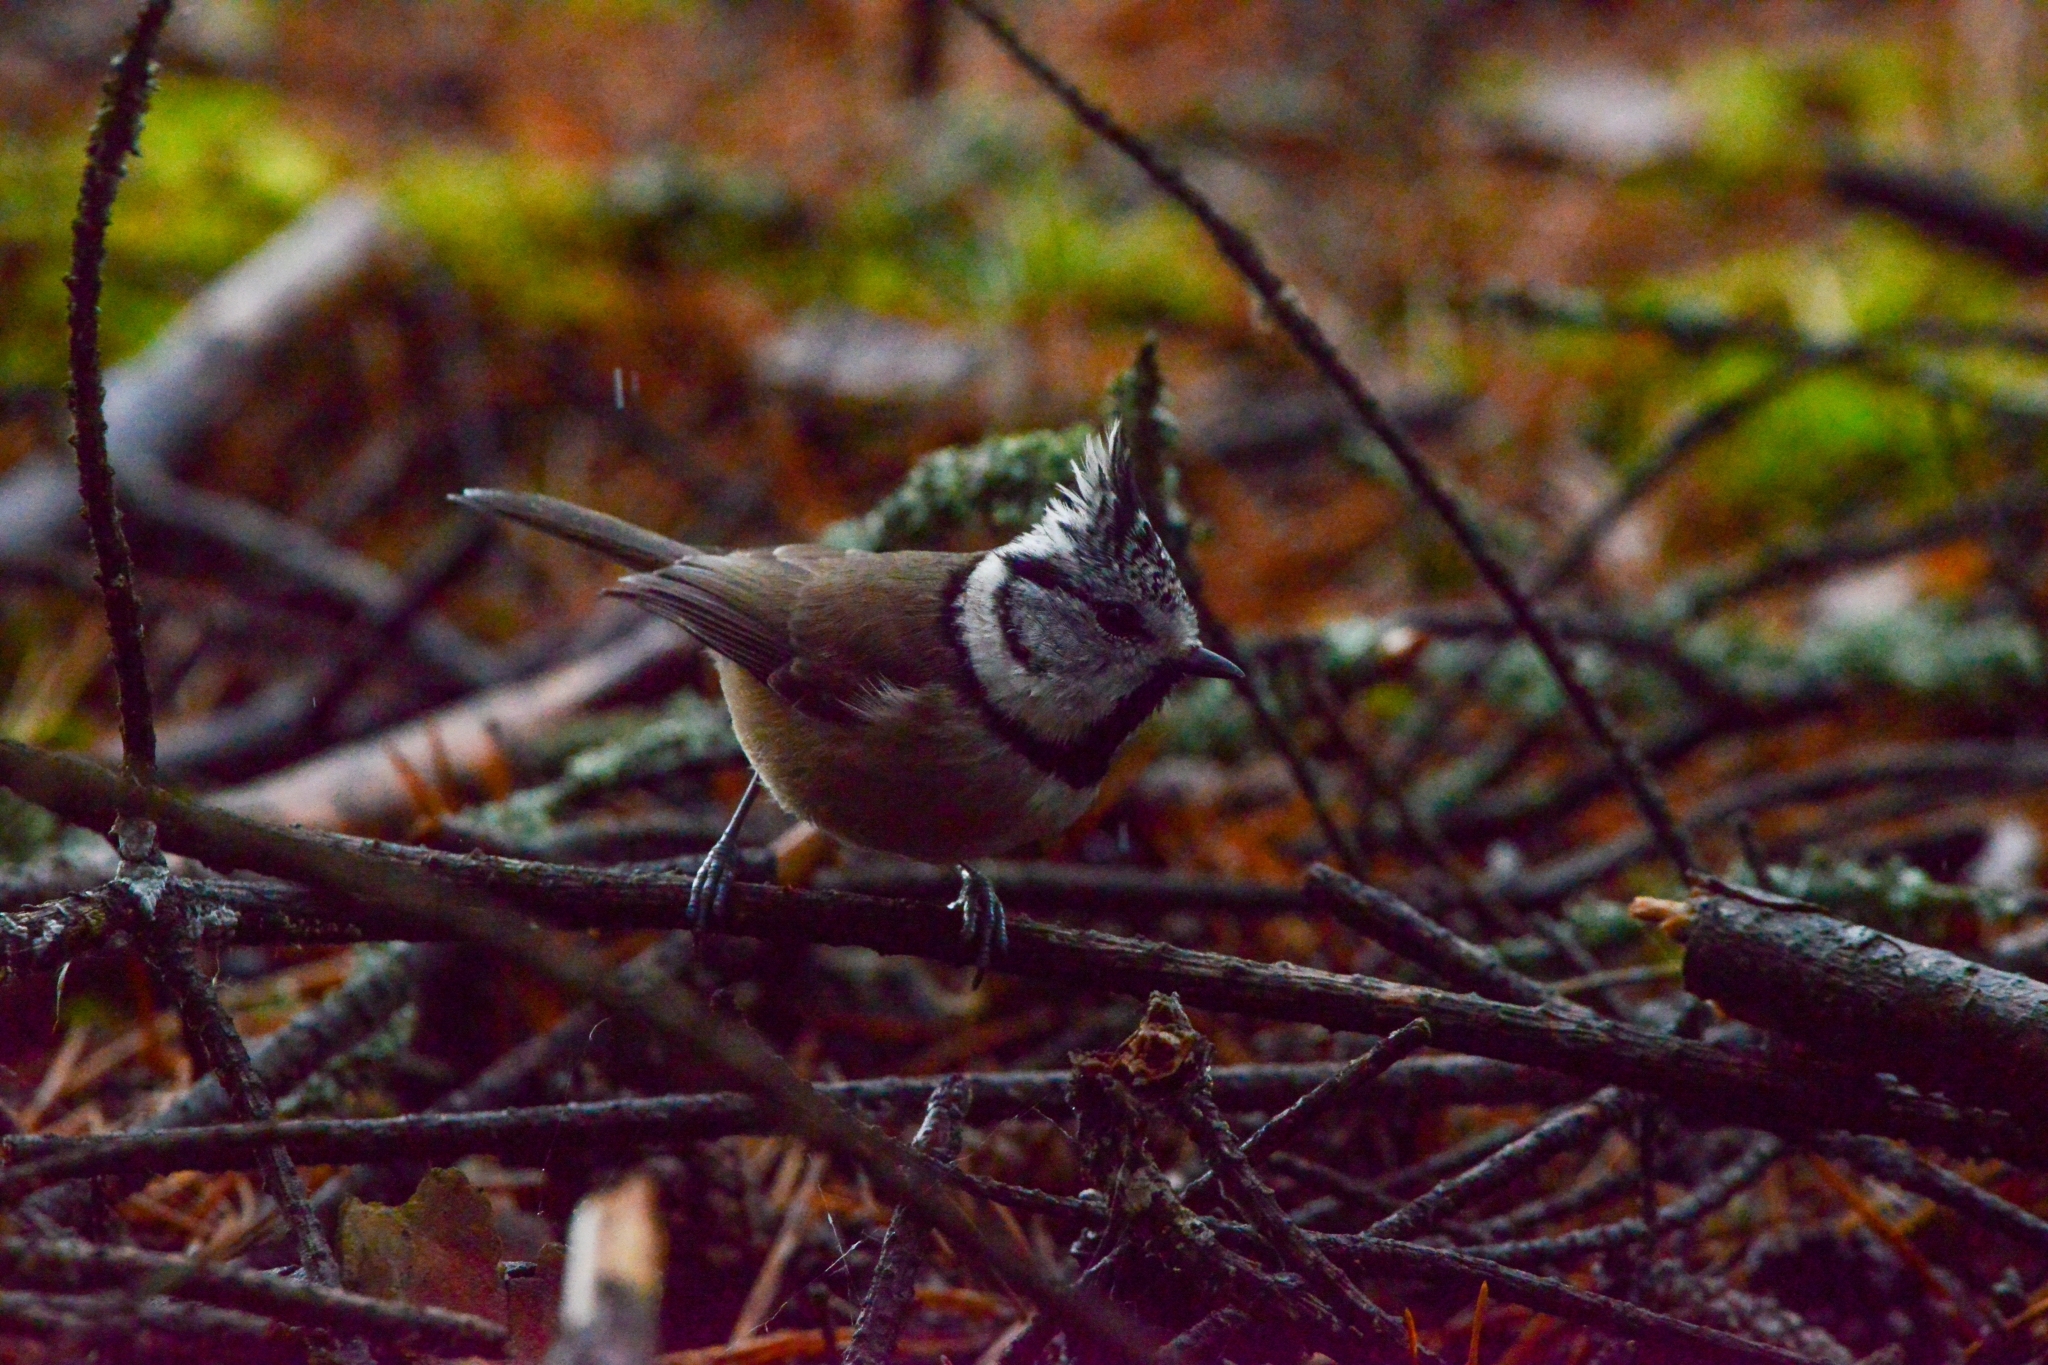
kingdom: Animalia
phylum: Chordata
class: Aves
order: Passeriformes
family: Paridae
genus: Lophophanes
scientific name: Lophophanes cristatus
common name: European crested tit
